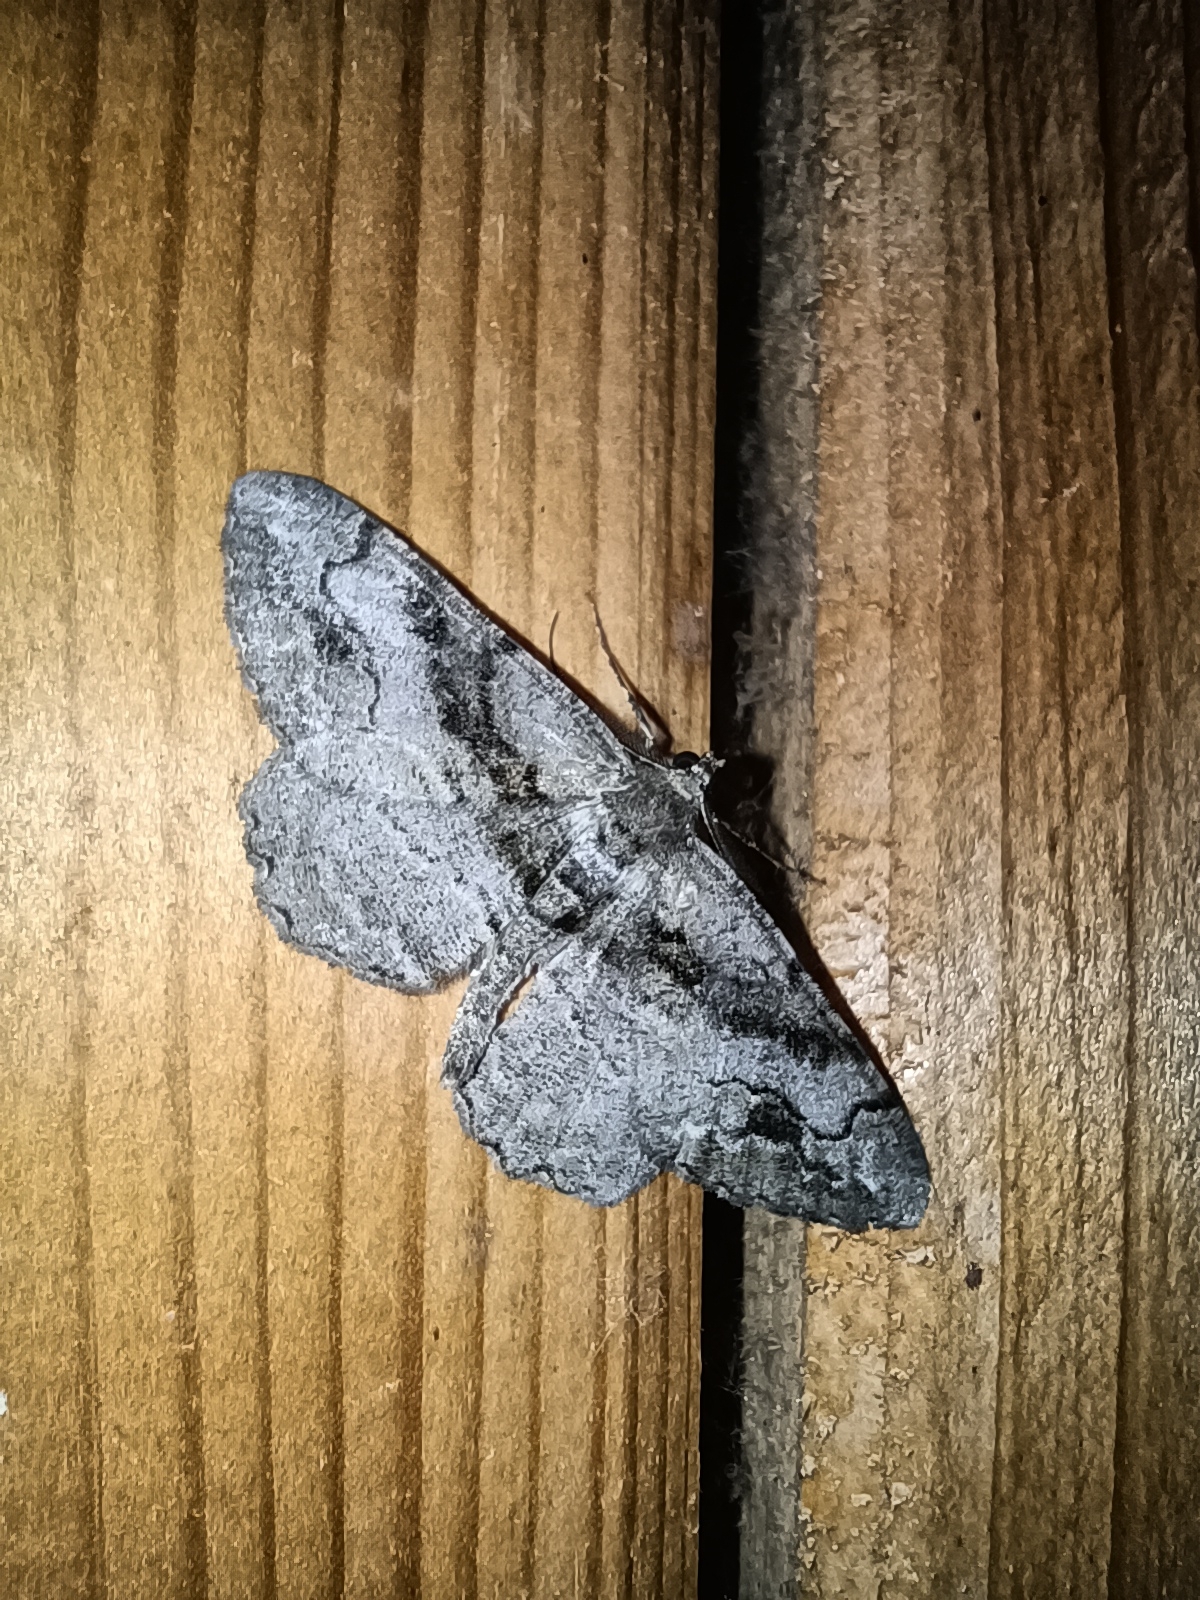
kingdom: Animalia
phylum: Arthropoda
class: Insecta
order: Lepidoptera
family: Geometridae
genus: Alcis
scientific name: Alcis deversata
